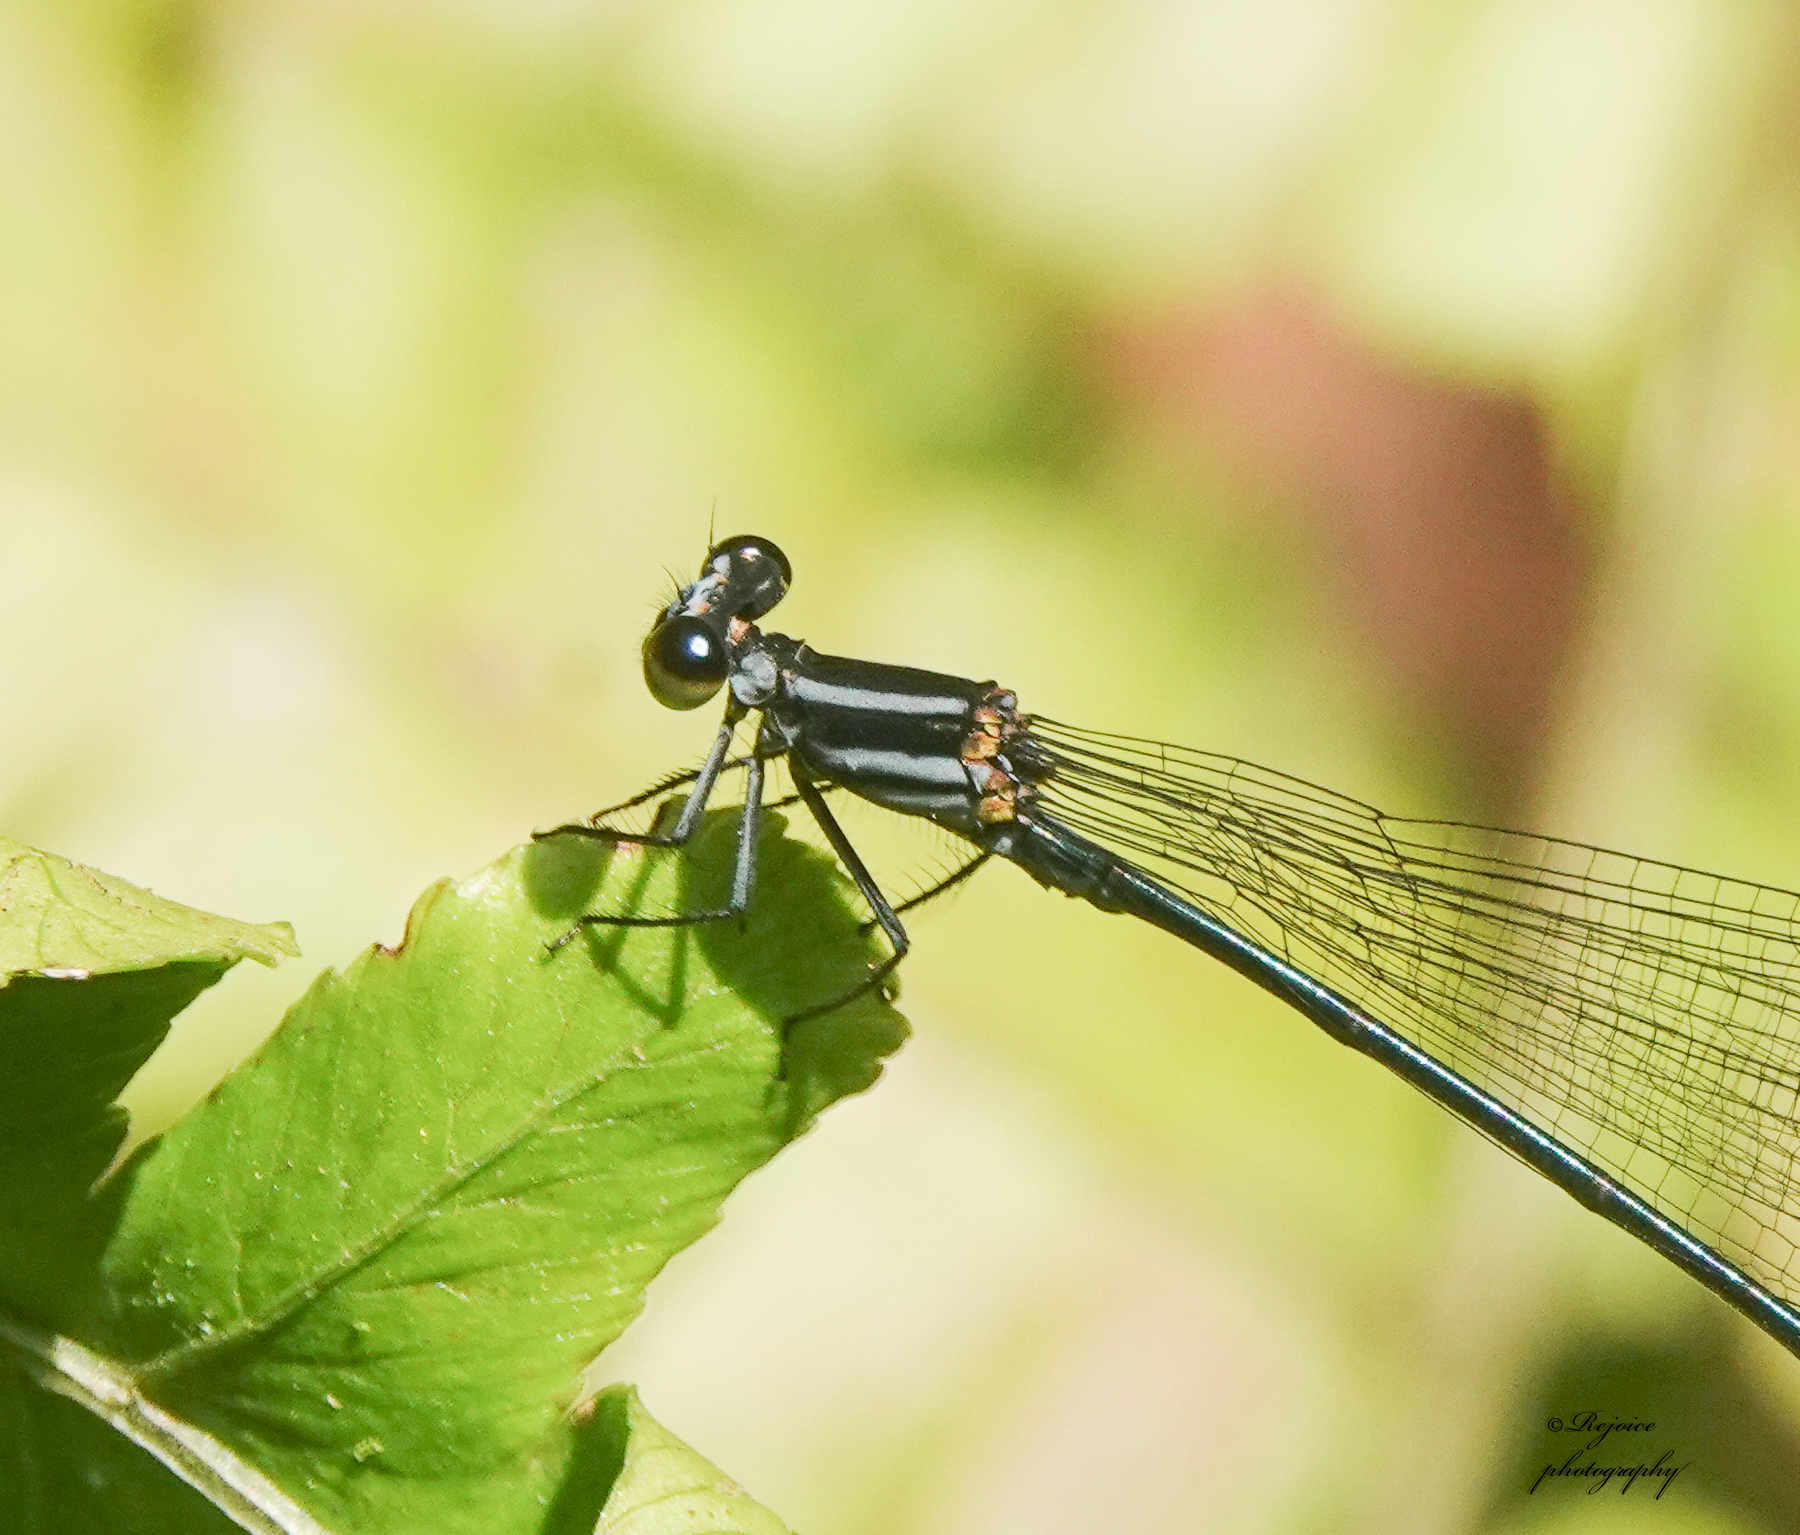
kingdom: Animalia
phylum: Arthropoda
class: Insecta
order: Odonata
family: Platycnemididae
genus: Calicnemia
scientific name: Calicnemia imitans
